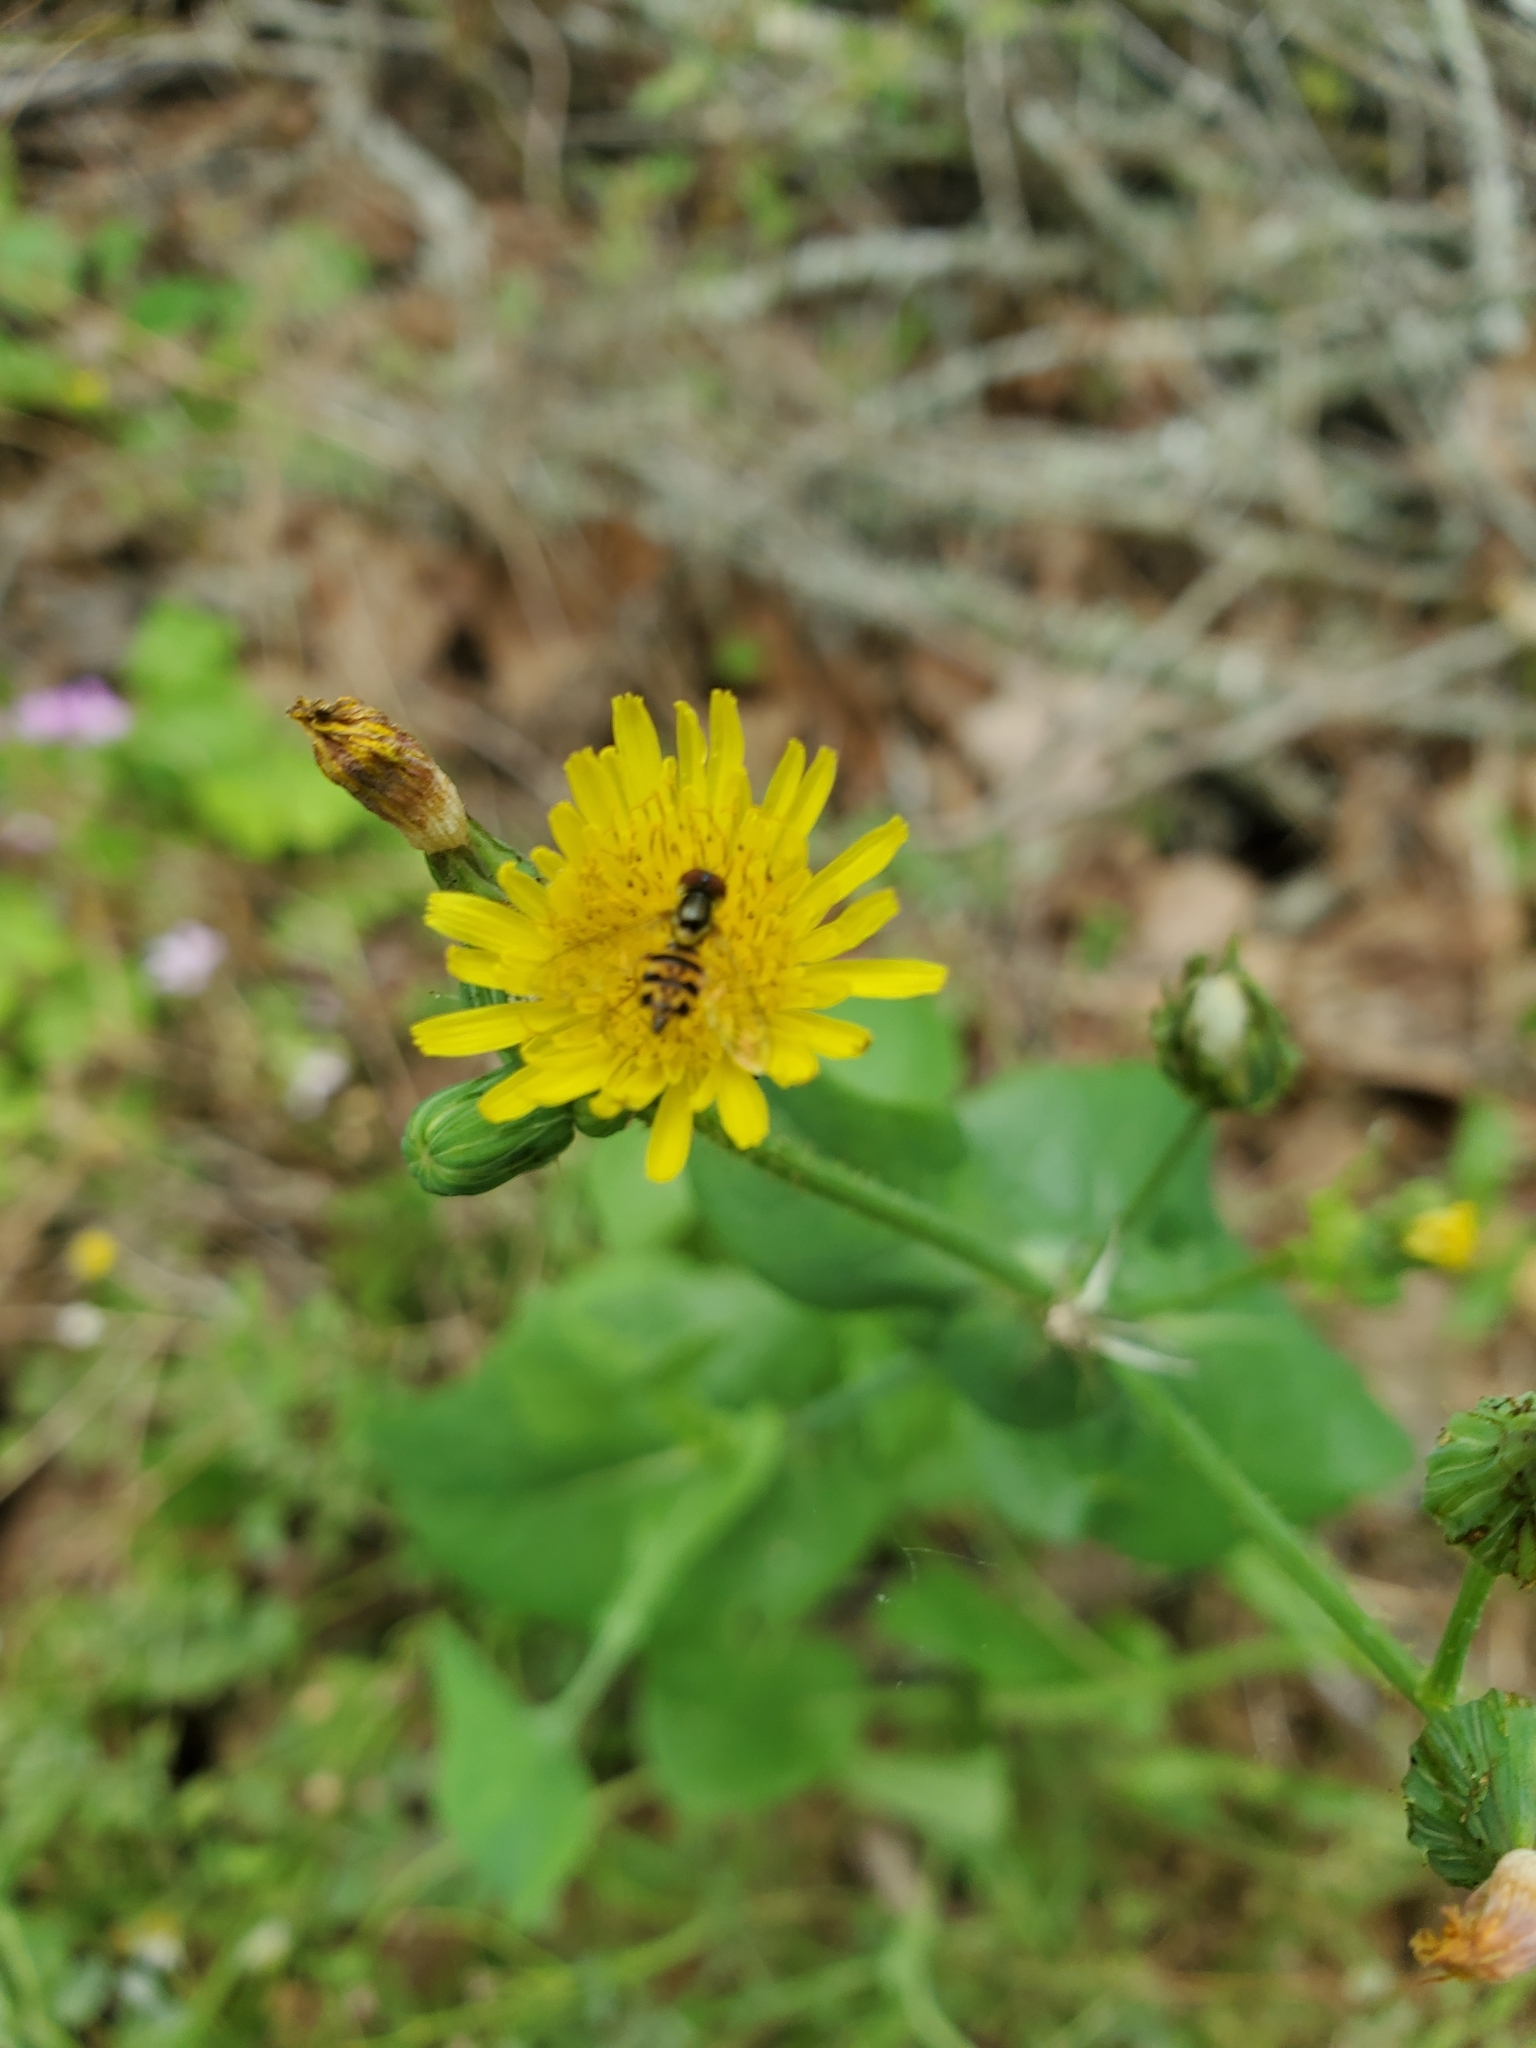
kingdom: Animalia
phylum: Arthropoda
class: Insecta
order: Diptera
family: Syrphidae
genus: Toxomerus
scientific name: Toxomerus geminatus
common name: Eastern calligrapher
